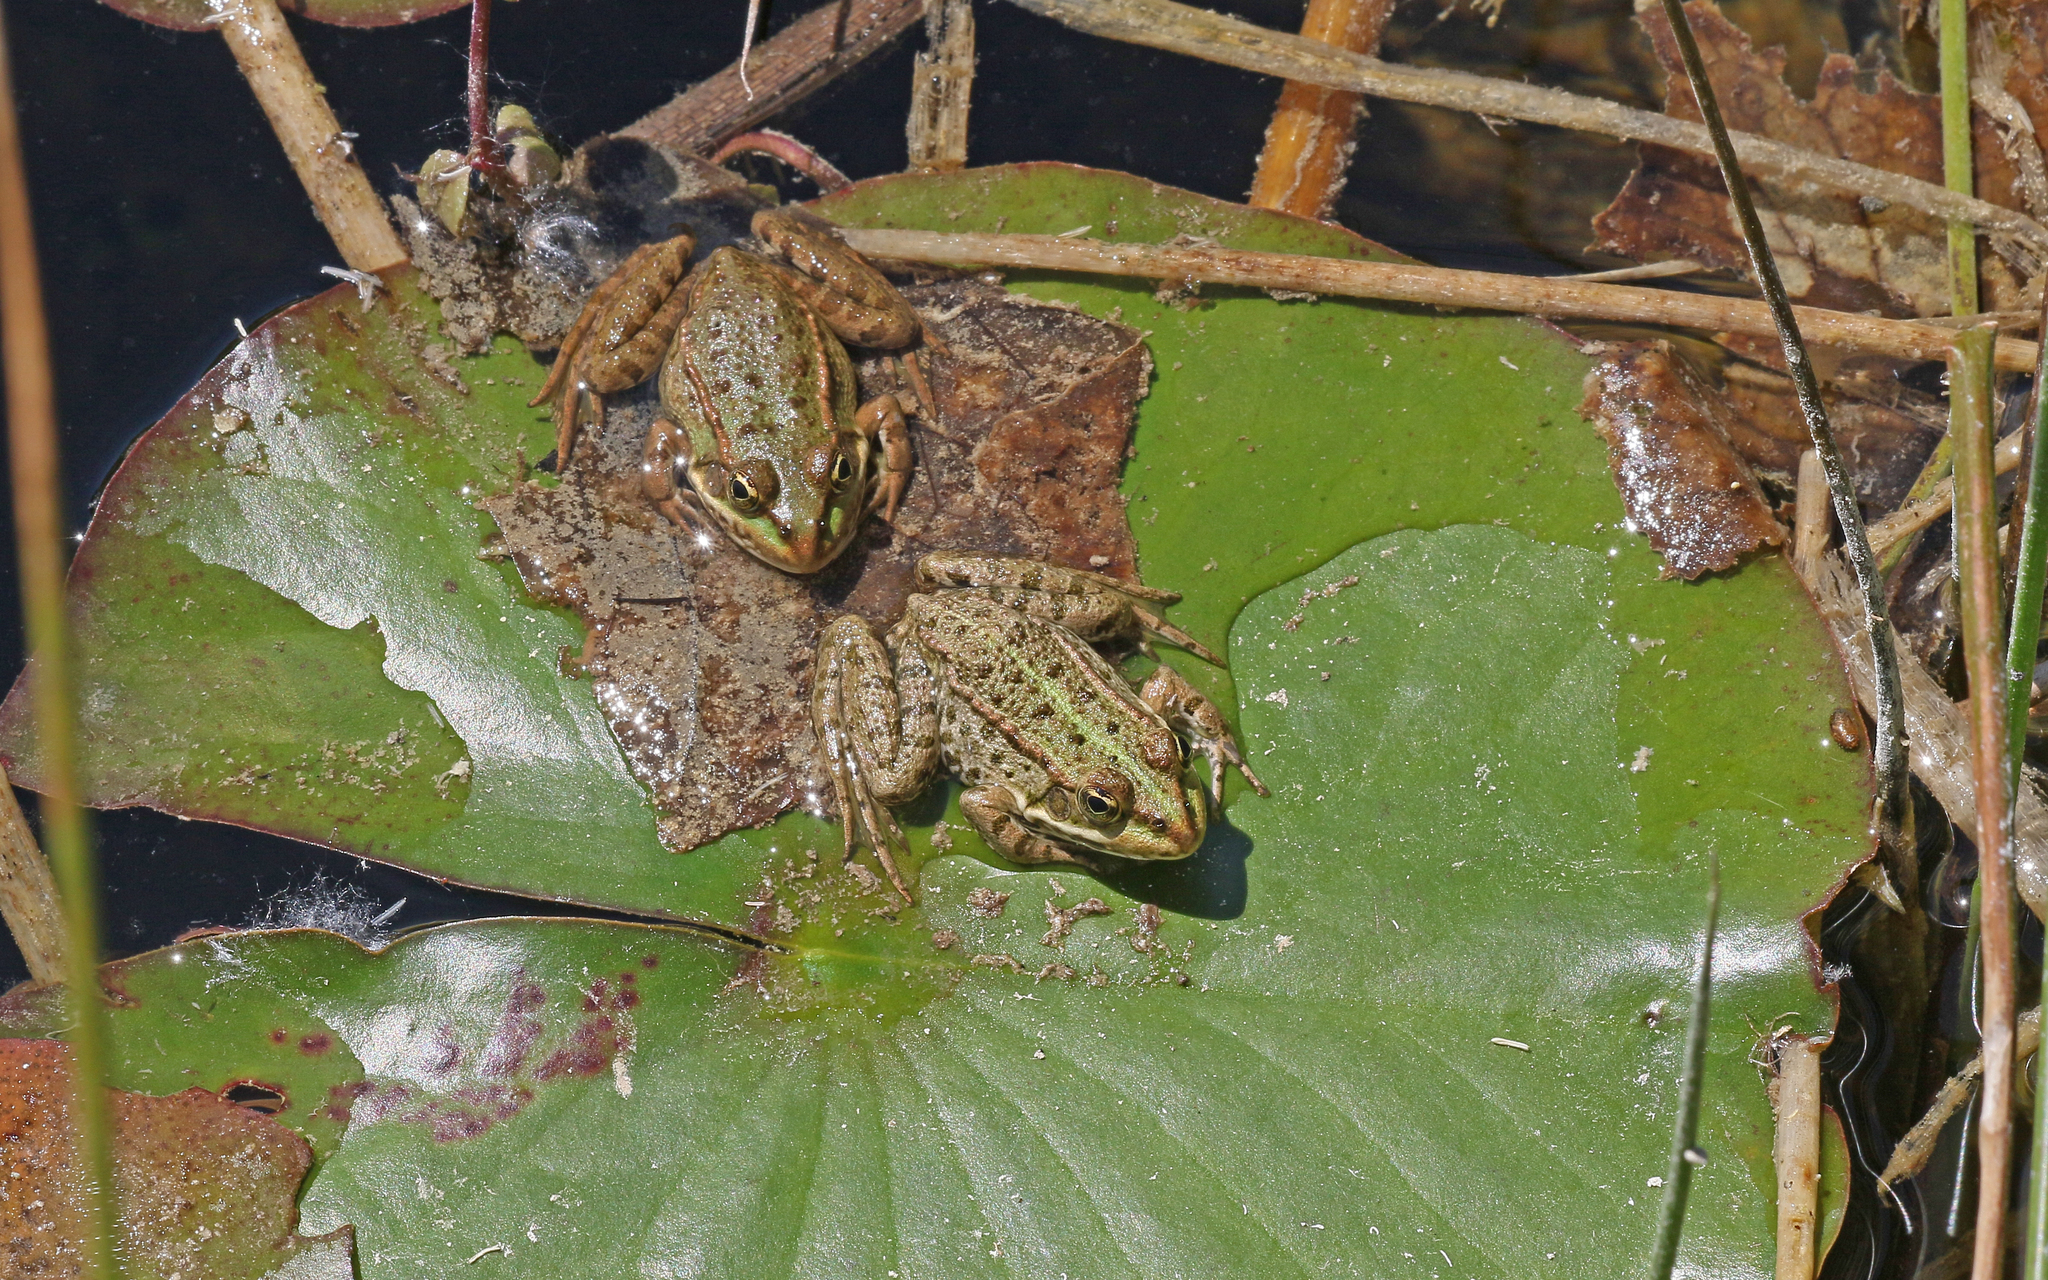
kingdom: Animalia
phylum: Chordata
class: Amphibia
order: Anura
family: Ranidae
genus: Pelophylax
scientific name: Pelophylax
